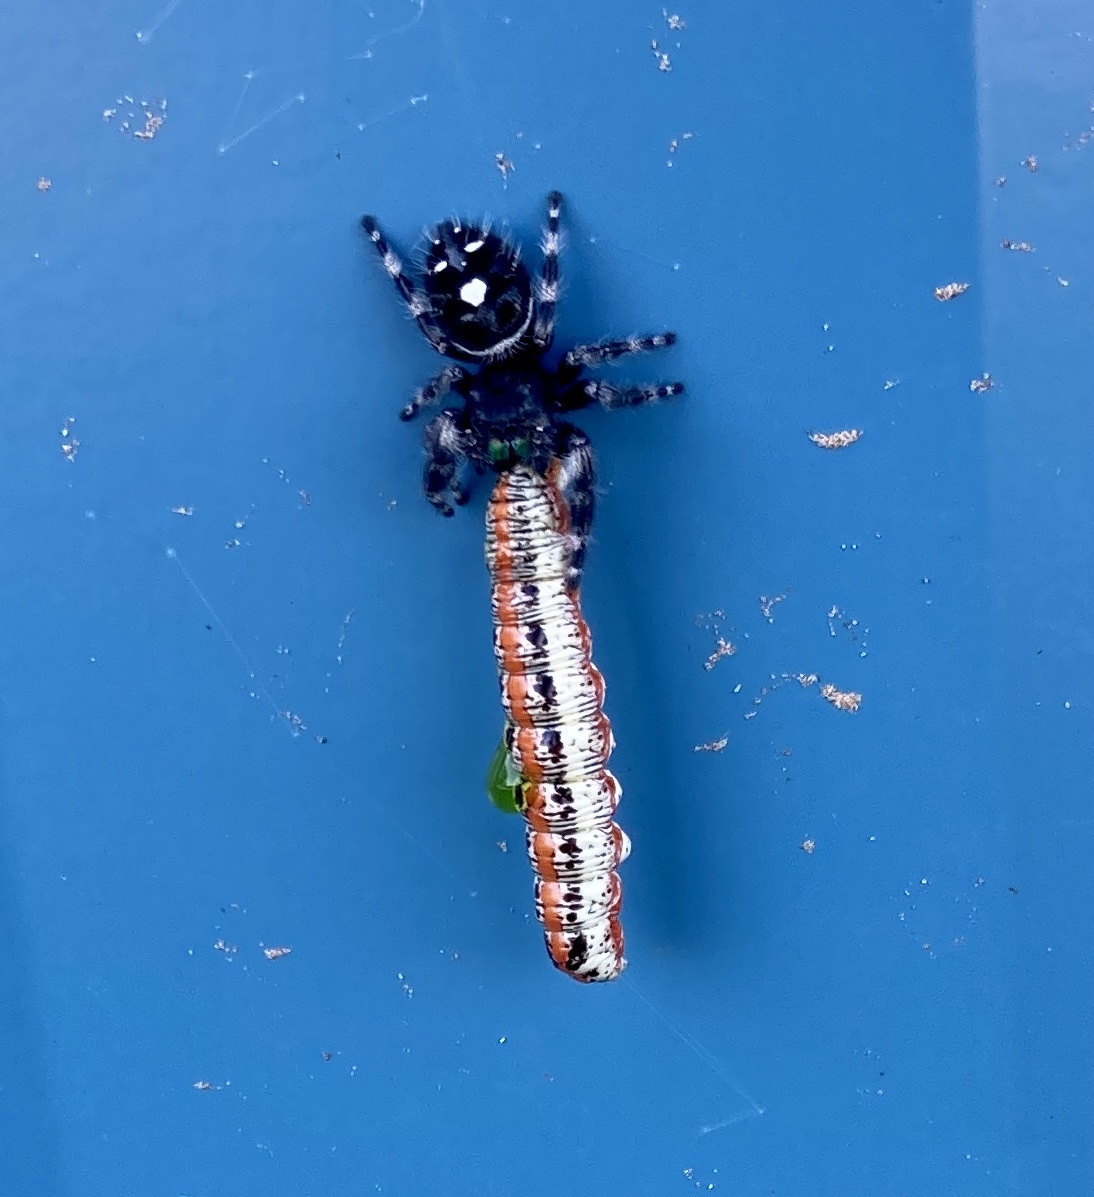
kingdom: Animalia
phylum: Arthropoda
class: Arachnida
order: Araneae
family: Salticidae
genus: Phidippus
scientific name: Phidippus audax
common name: Bold jumper
